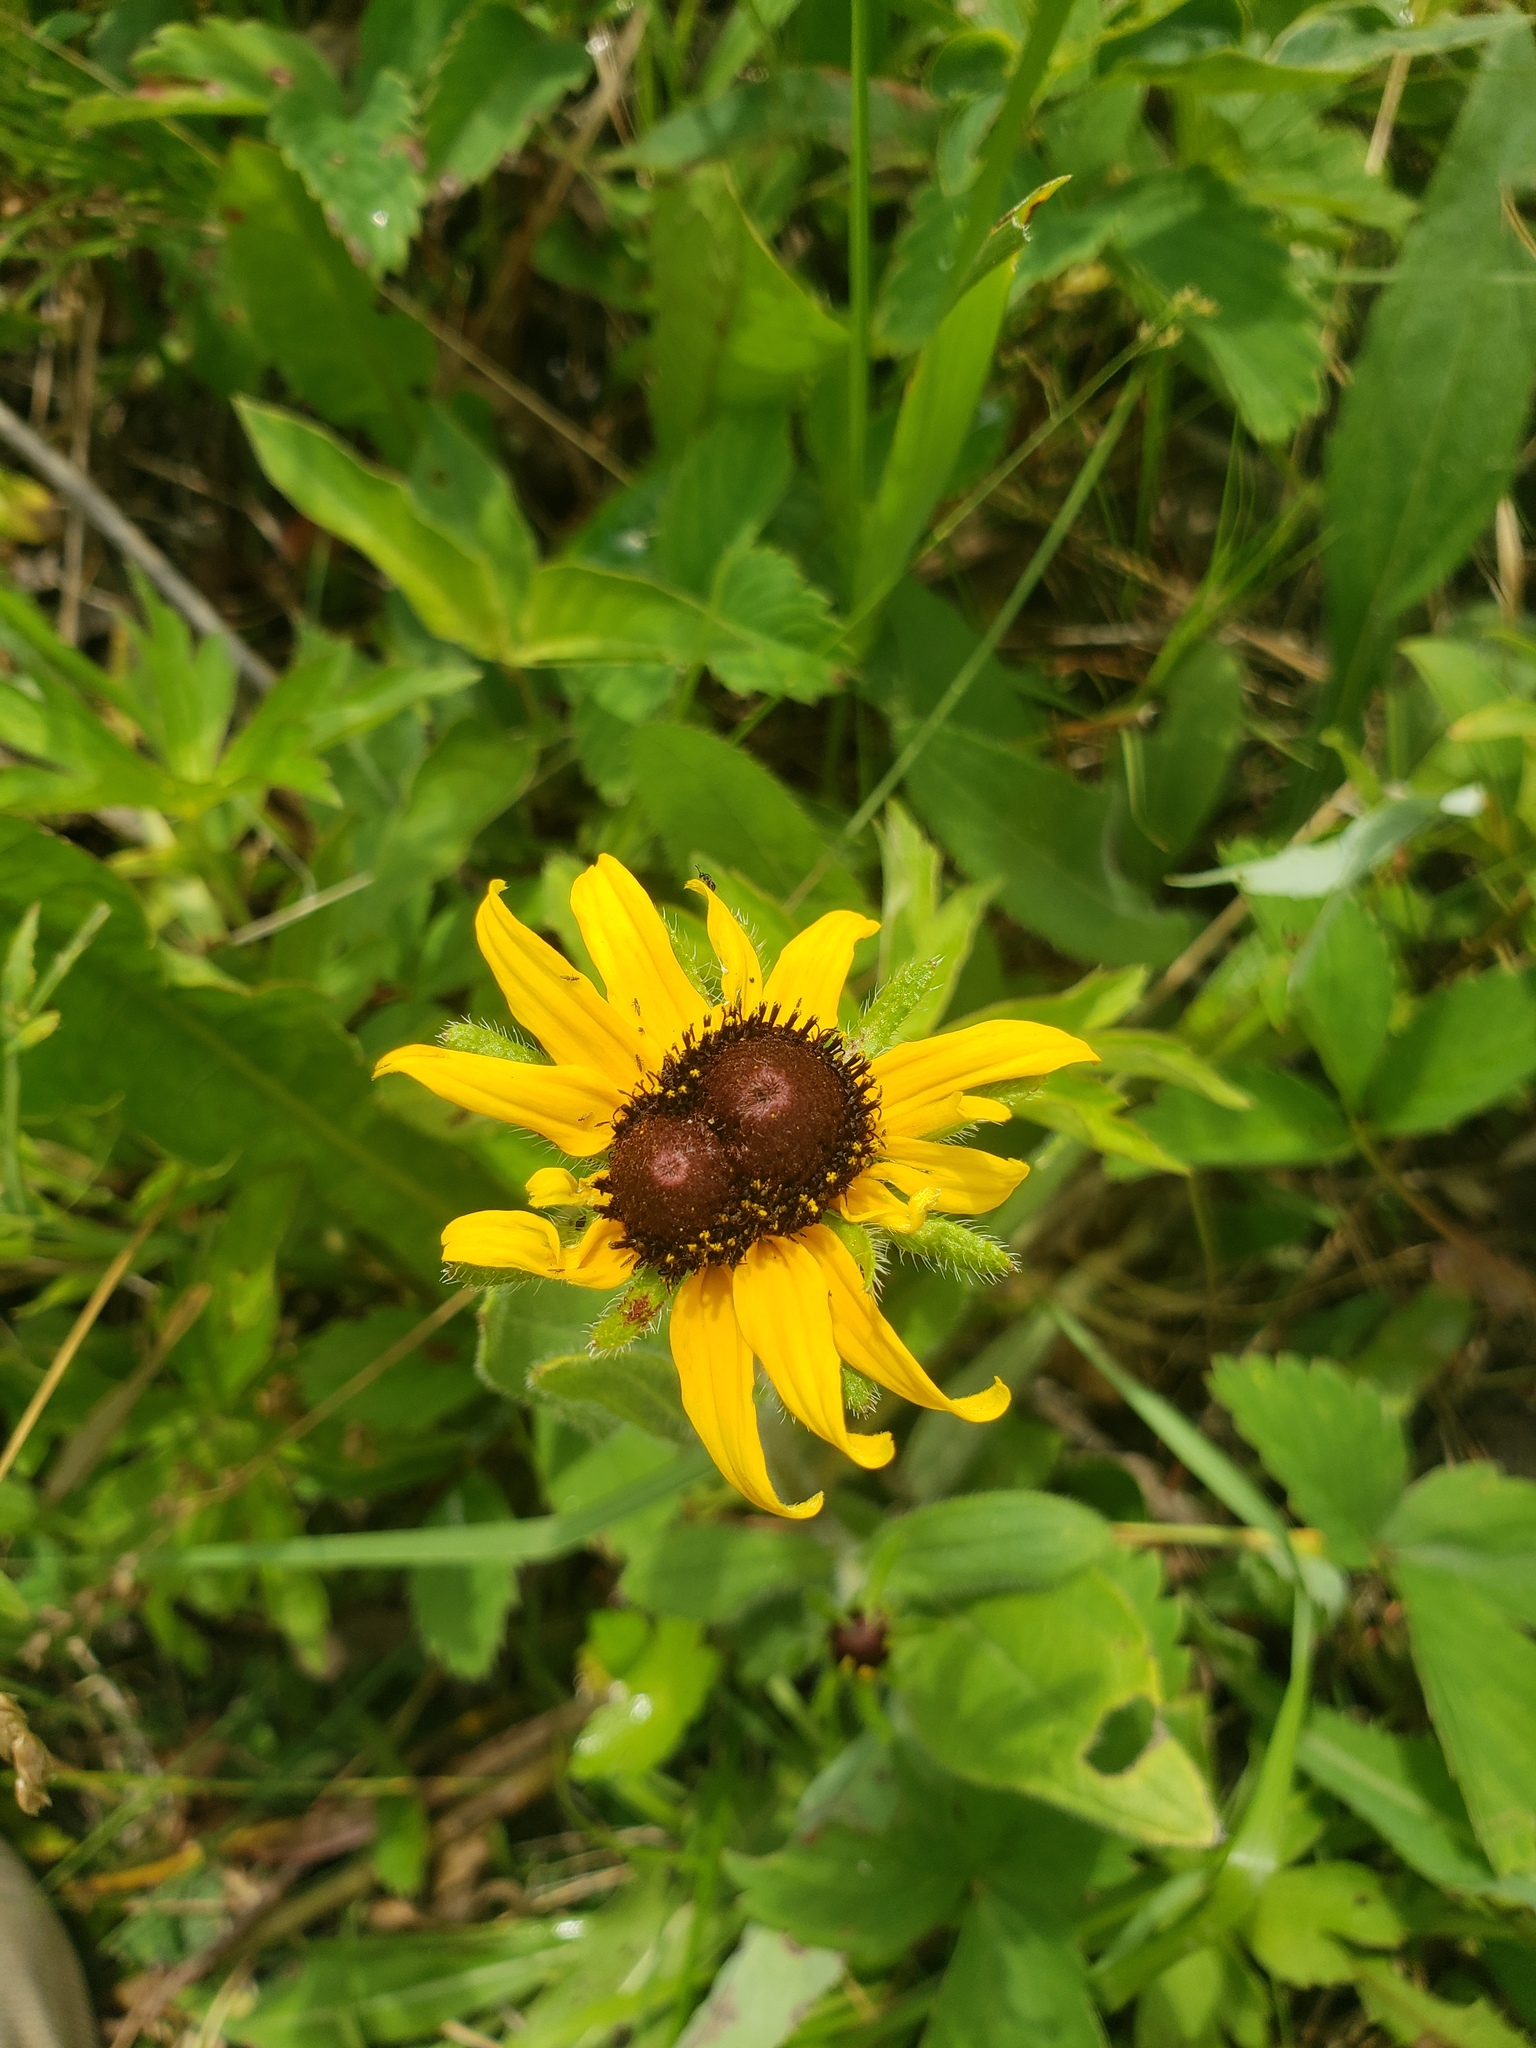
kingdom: Plantae
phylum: Tracheophyta
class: Magnoliopsida
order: Asterales
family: Asteraceae
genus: Rudbeckia
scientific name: Rudbeckia hirta
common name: Black-eyed-susan
